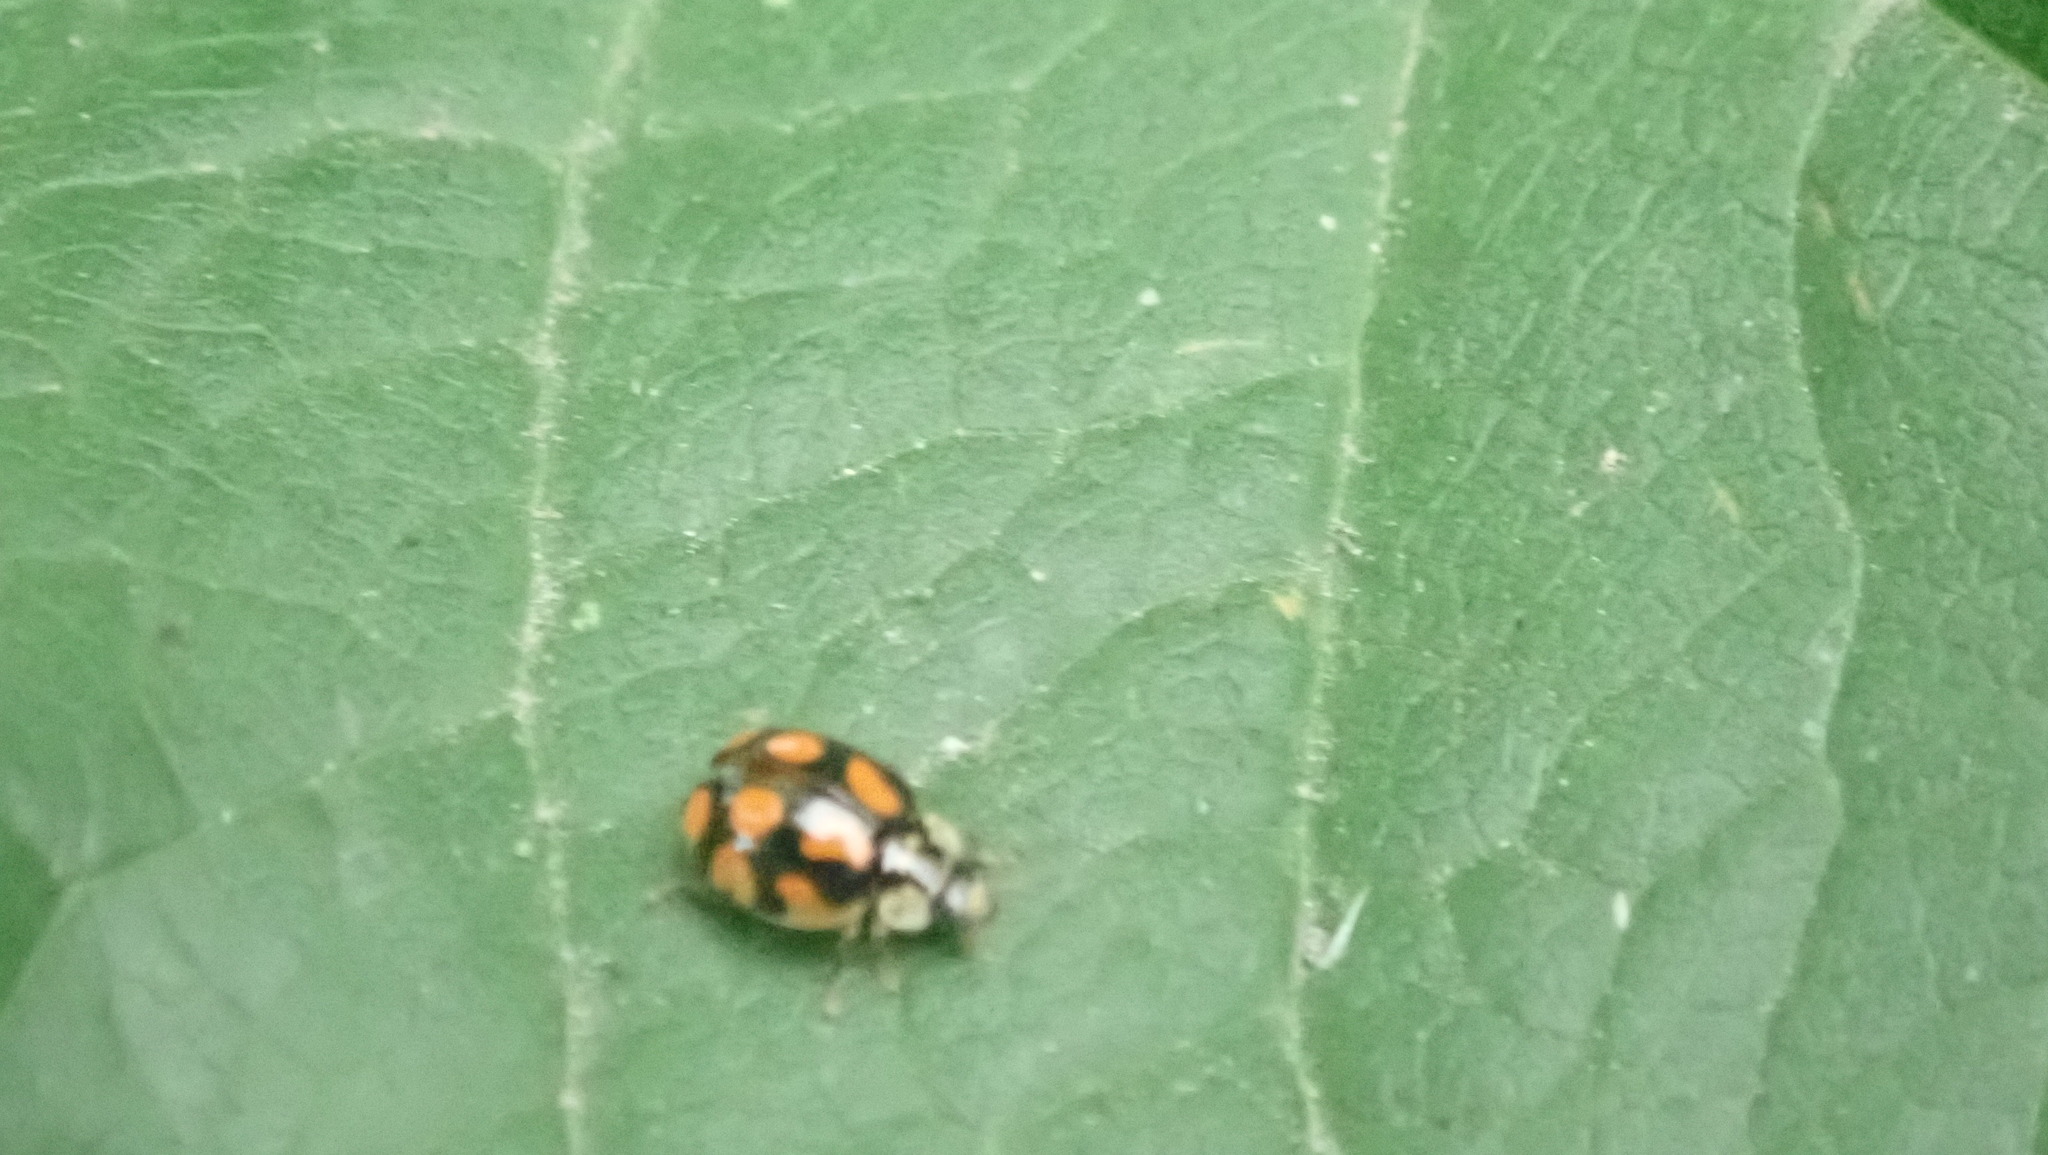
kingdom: Animalia
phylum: Arthropoda
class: Insecta
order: Coleoptera
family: Coccinellidae
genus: Adalia
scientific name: Adalia decempunctata
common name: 10-spot ladybird
